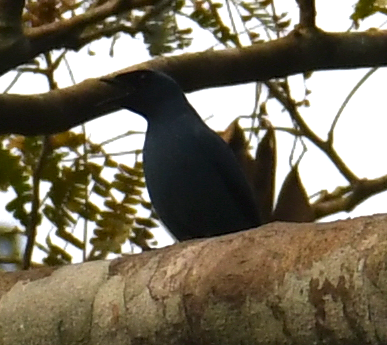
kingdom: Animalia
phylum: Chordata
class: Aves
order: Passeriformes
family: Campephagidae
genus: Coracina
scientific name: Coracina azurea
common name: Blue cuckooshrike
